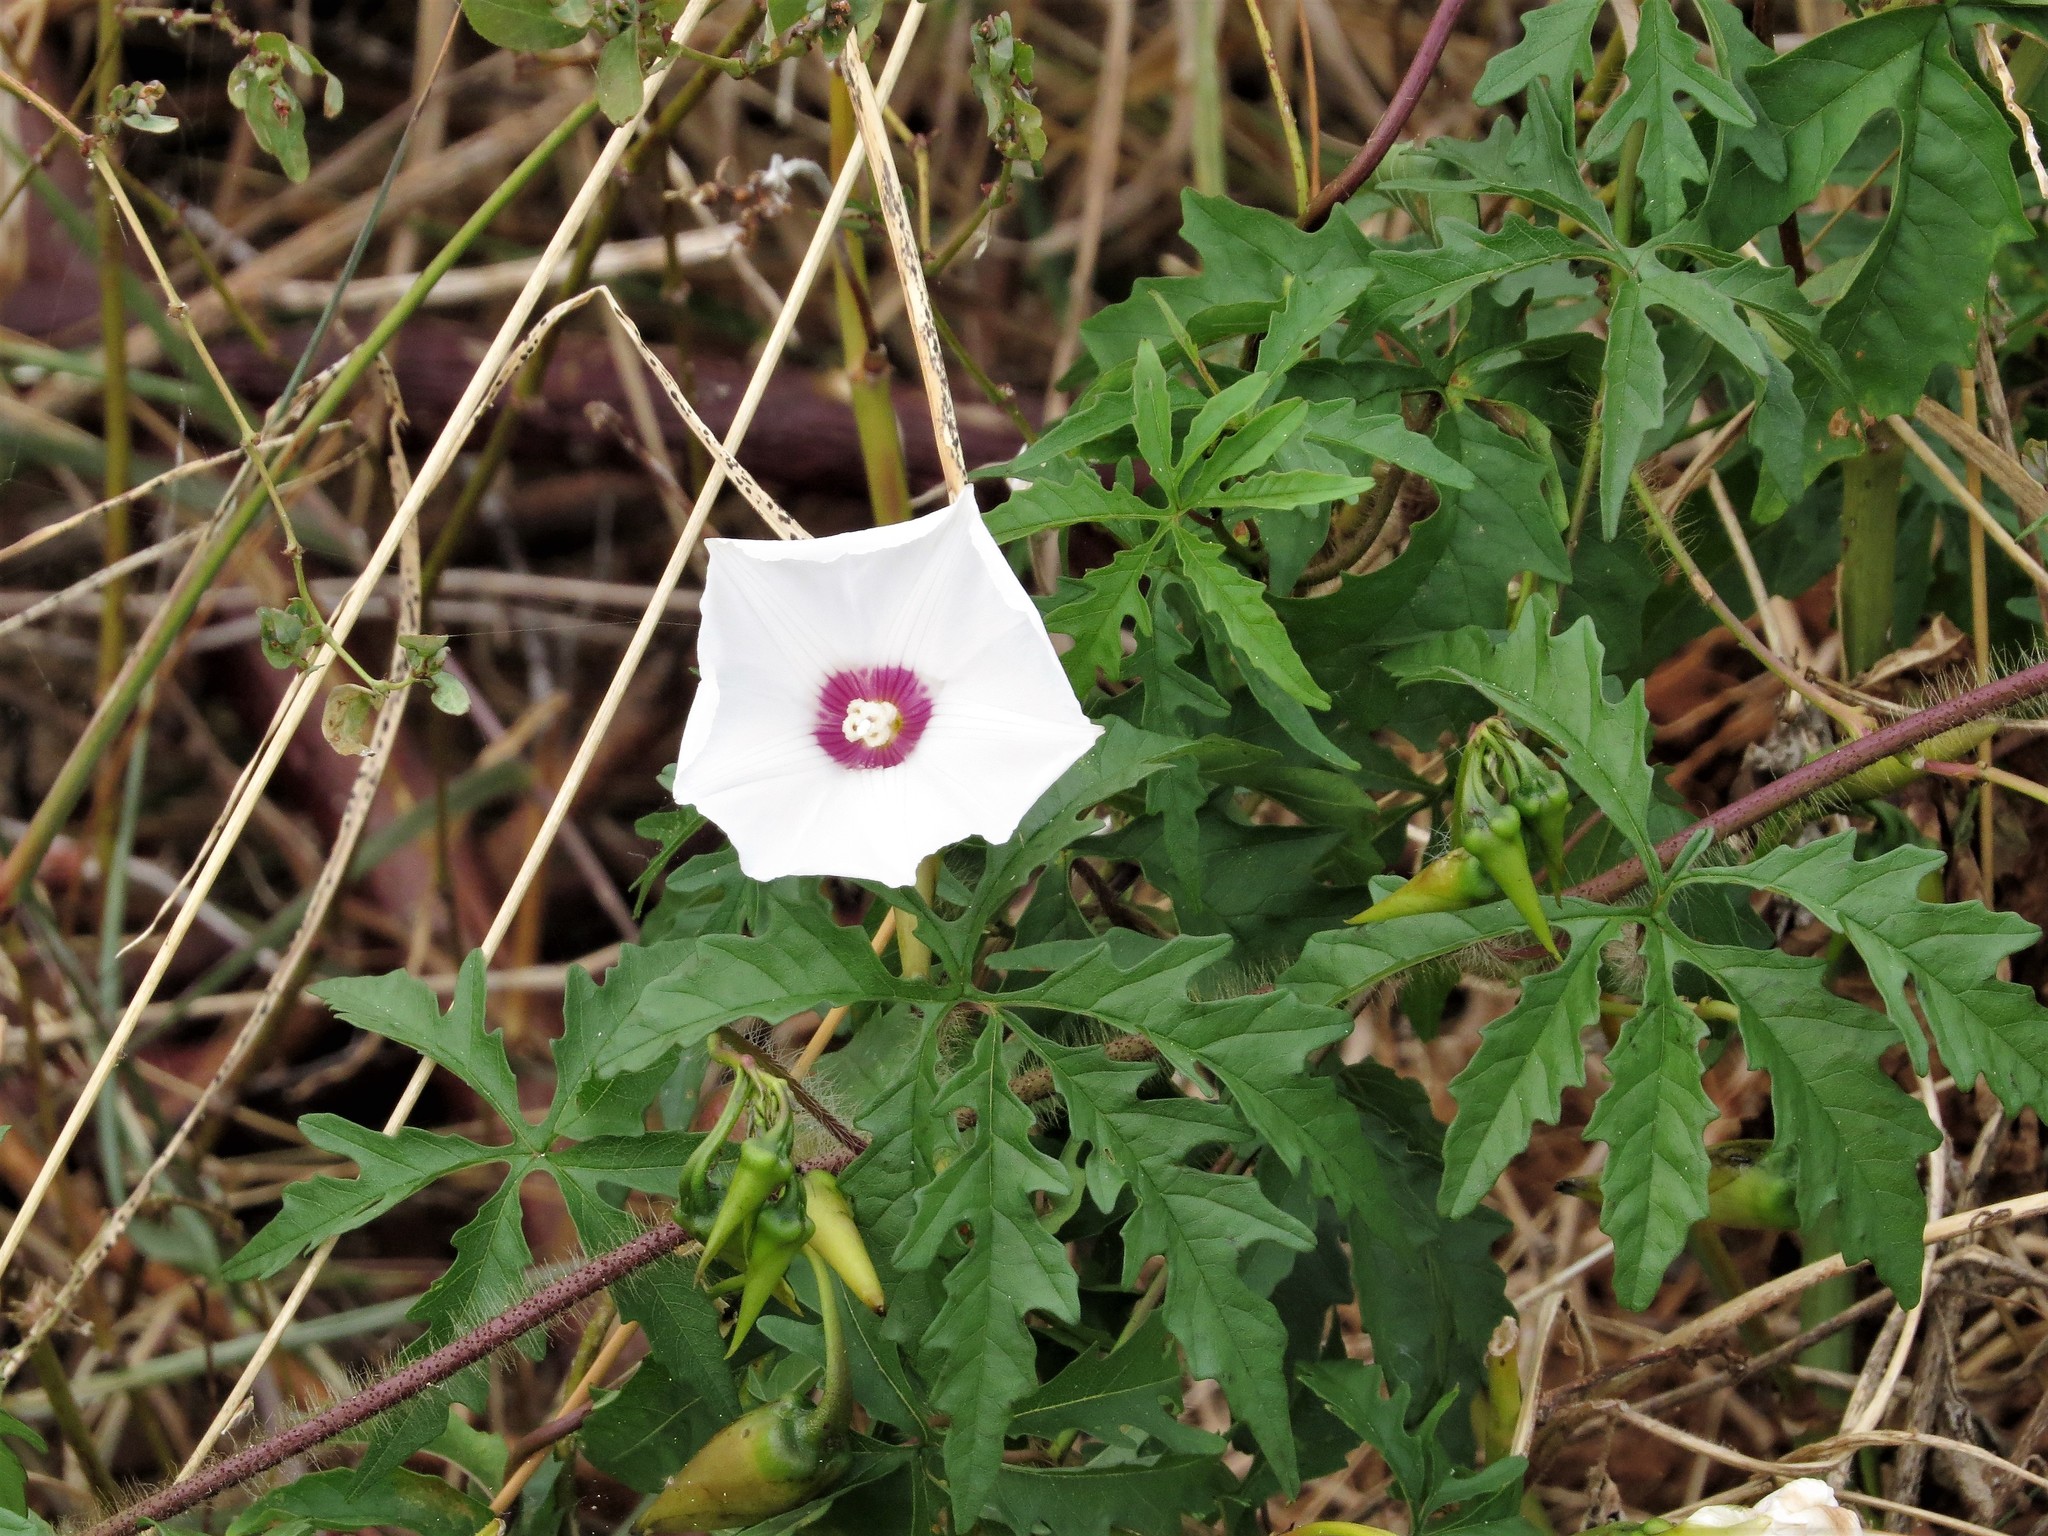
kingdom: Plantae
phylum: Tracheophyta
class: Magnoliopsida
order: Solanales
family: Convolvulaceae
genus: Distimake
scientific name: Distimake dissectus
